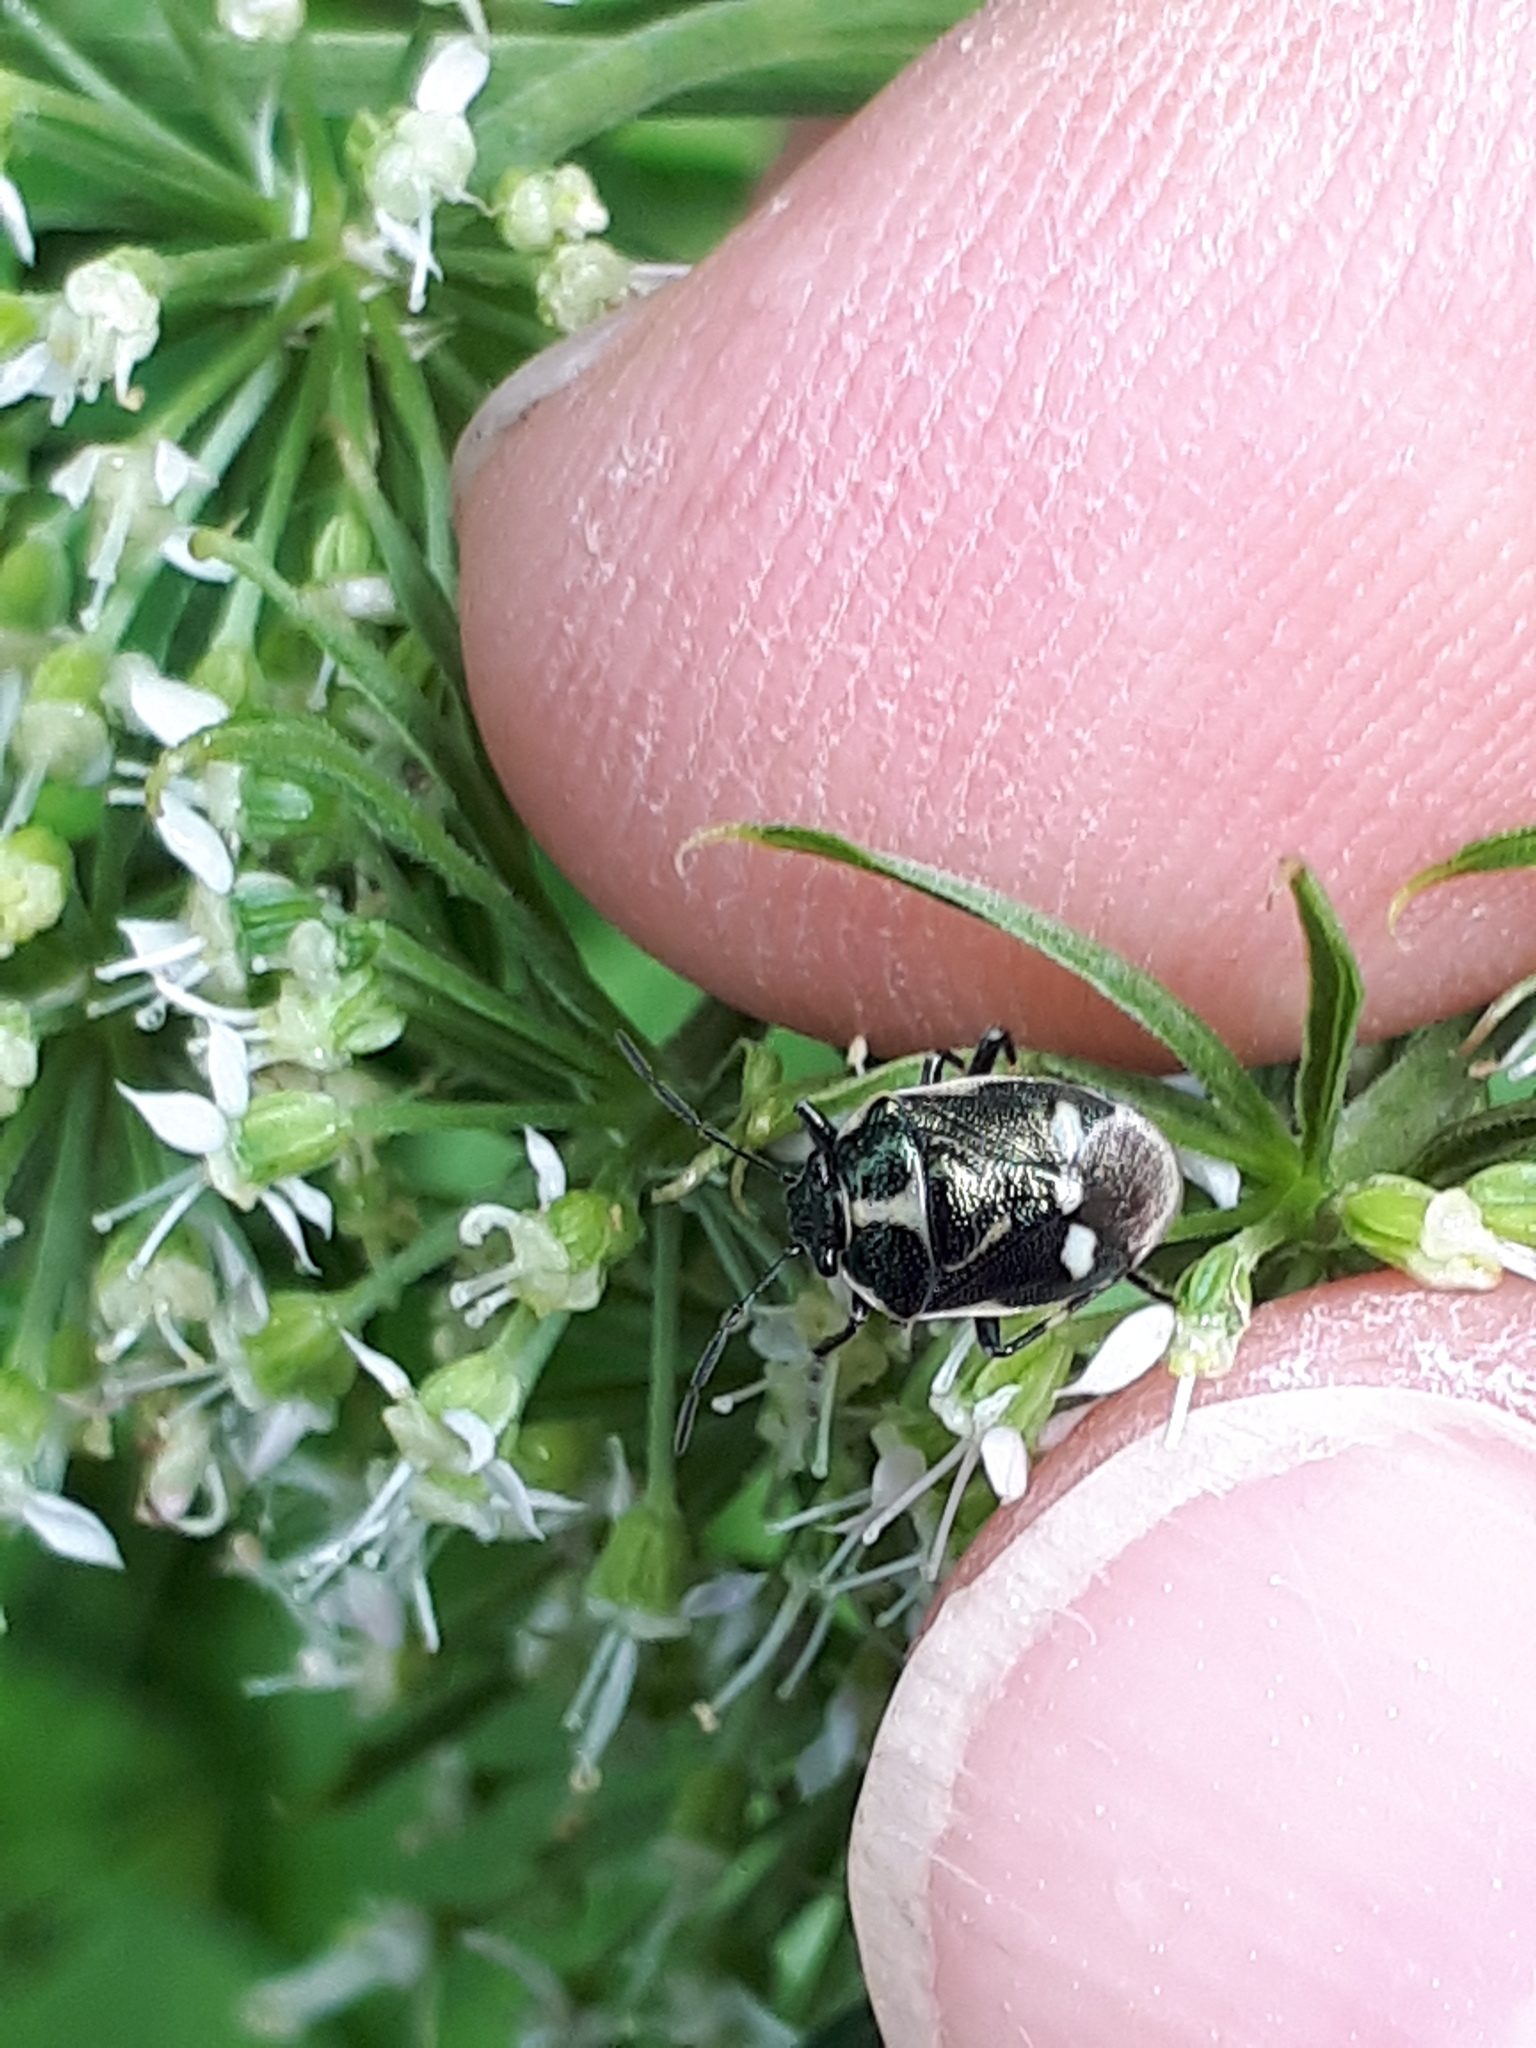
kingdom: Animalia
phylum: Arthropoda
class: Insecta
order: Hemiptera
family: Pentatomidae
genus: Eurydema
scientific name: Eurydema oleracea
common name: Cabbage bug
